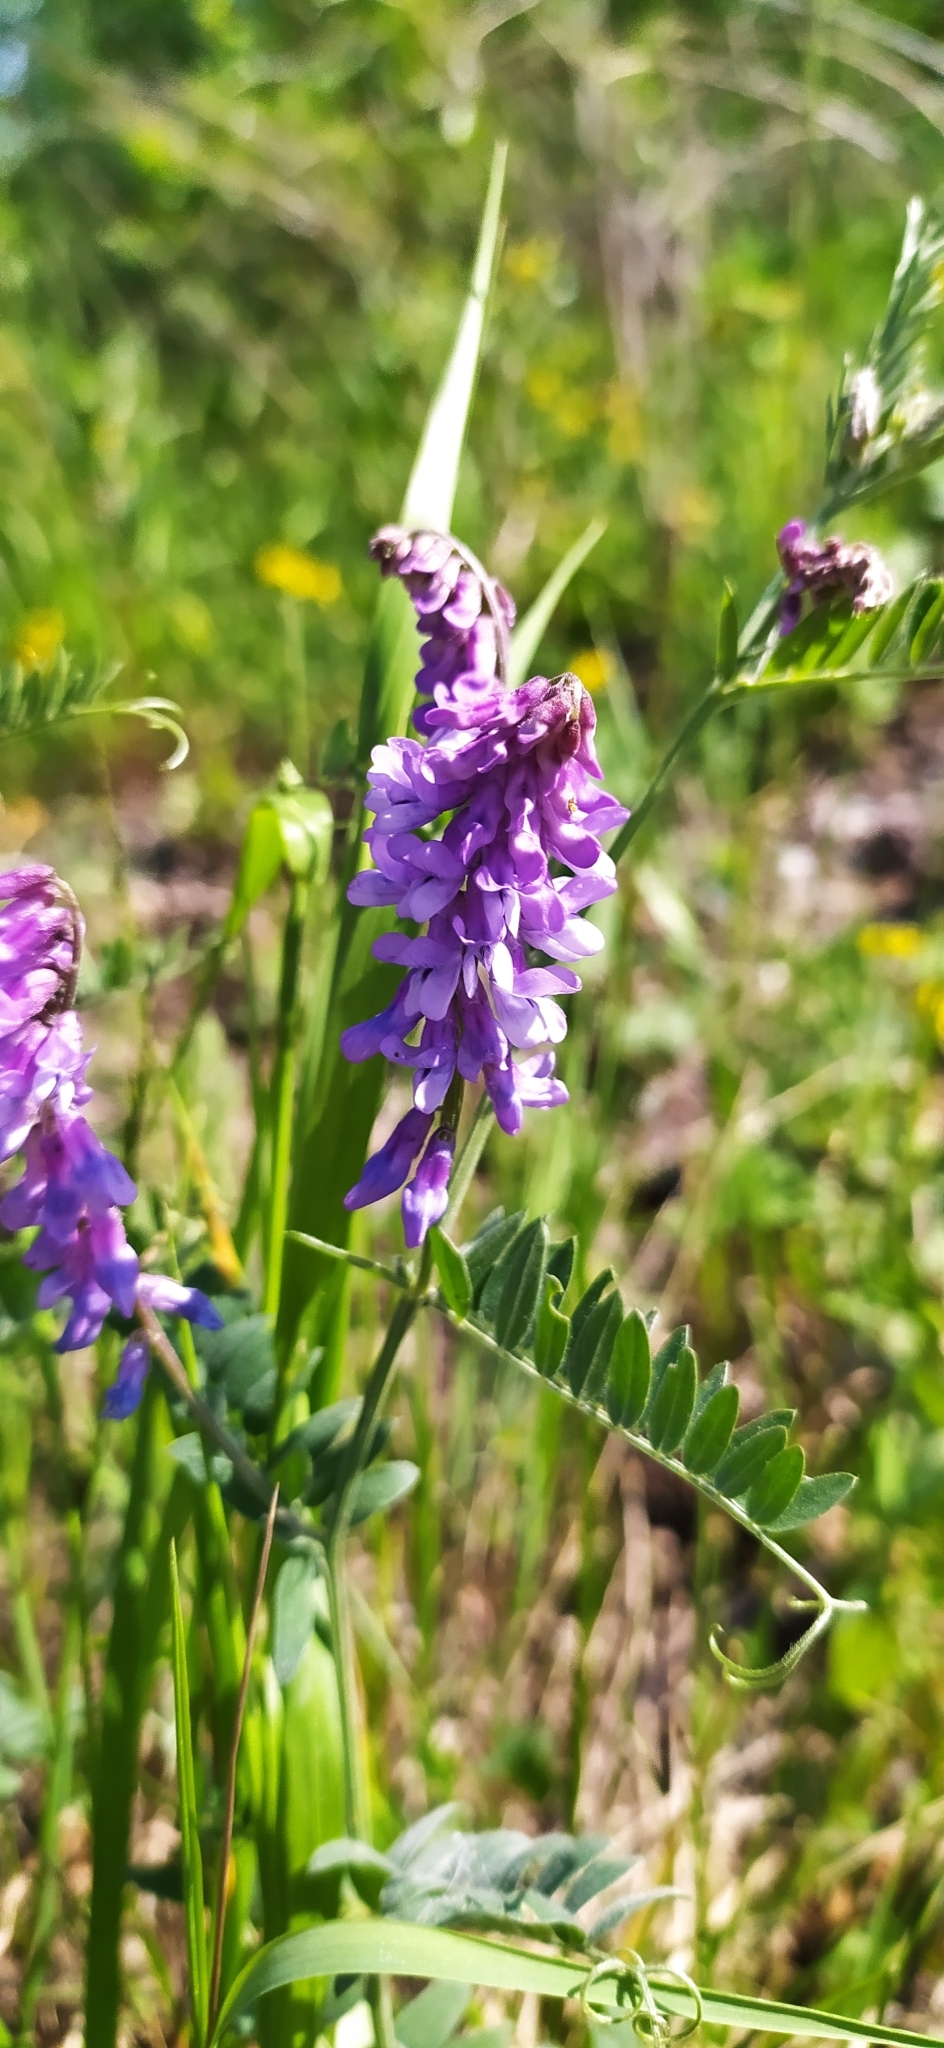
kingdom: Plantae
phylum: Tracheophyta
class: Magnoliopsida
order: Fabales
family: Fabaceae
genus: Vicia
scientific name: Vicia cracca
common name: Bird vetch
